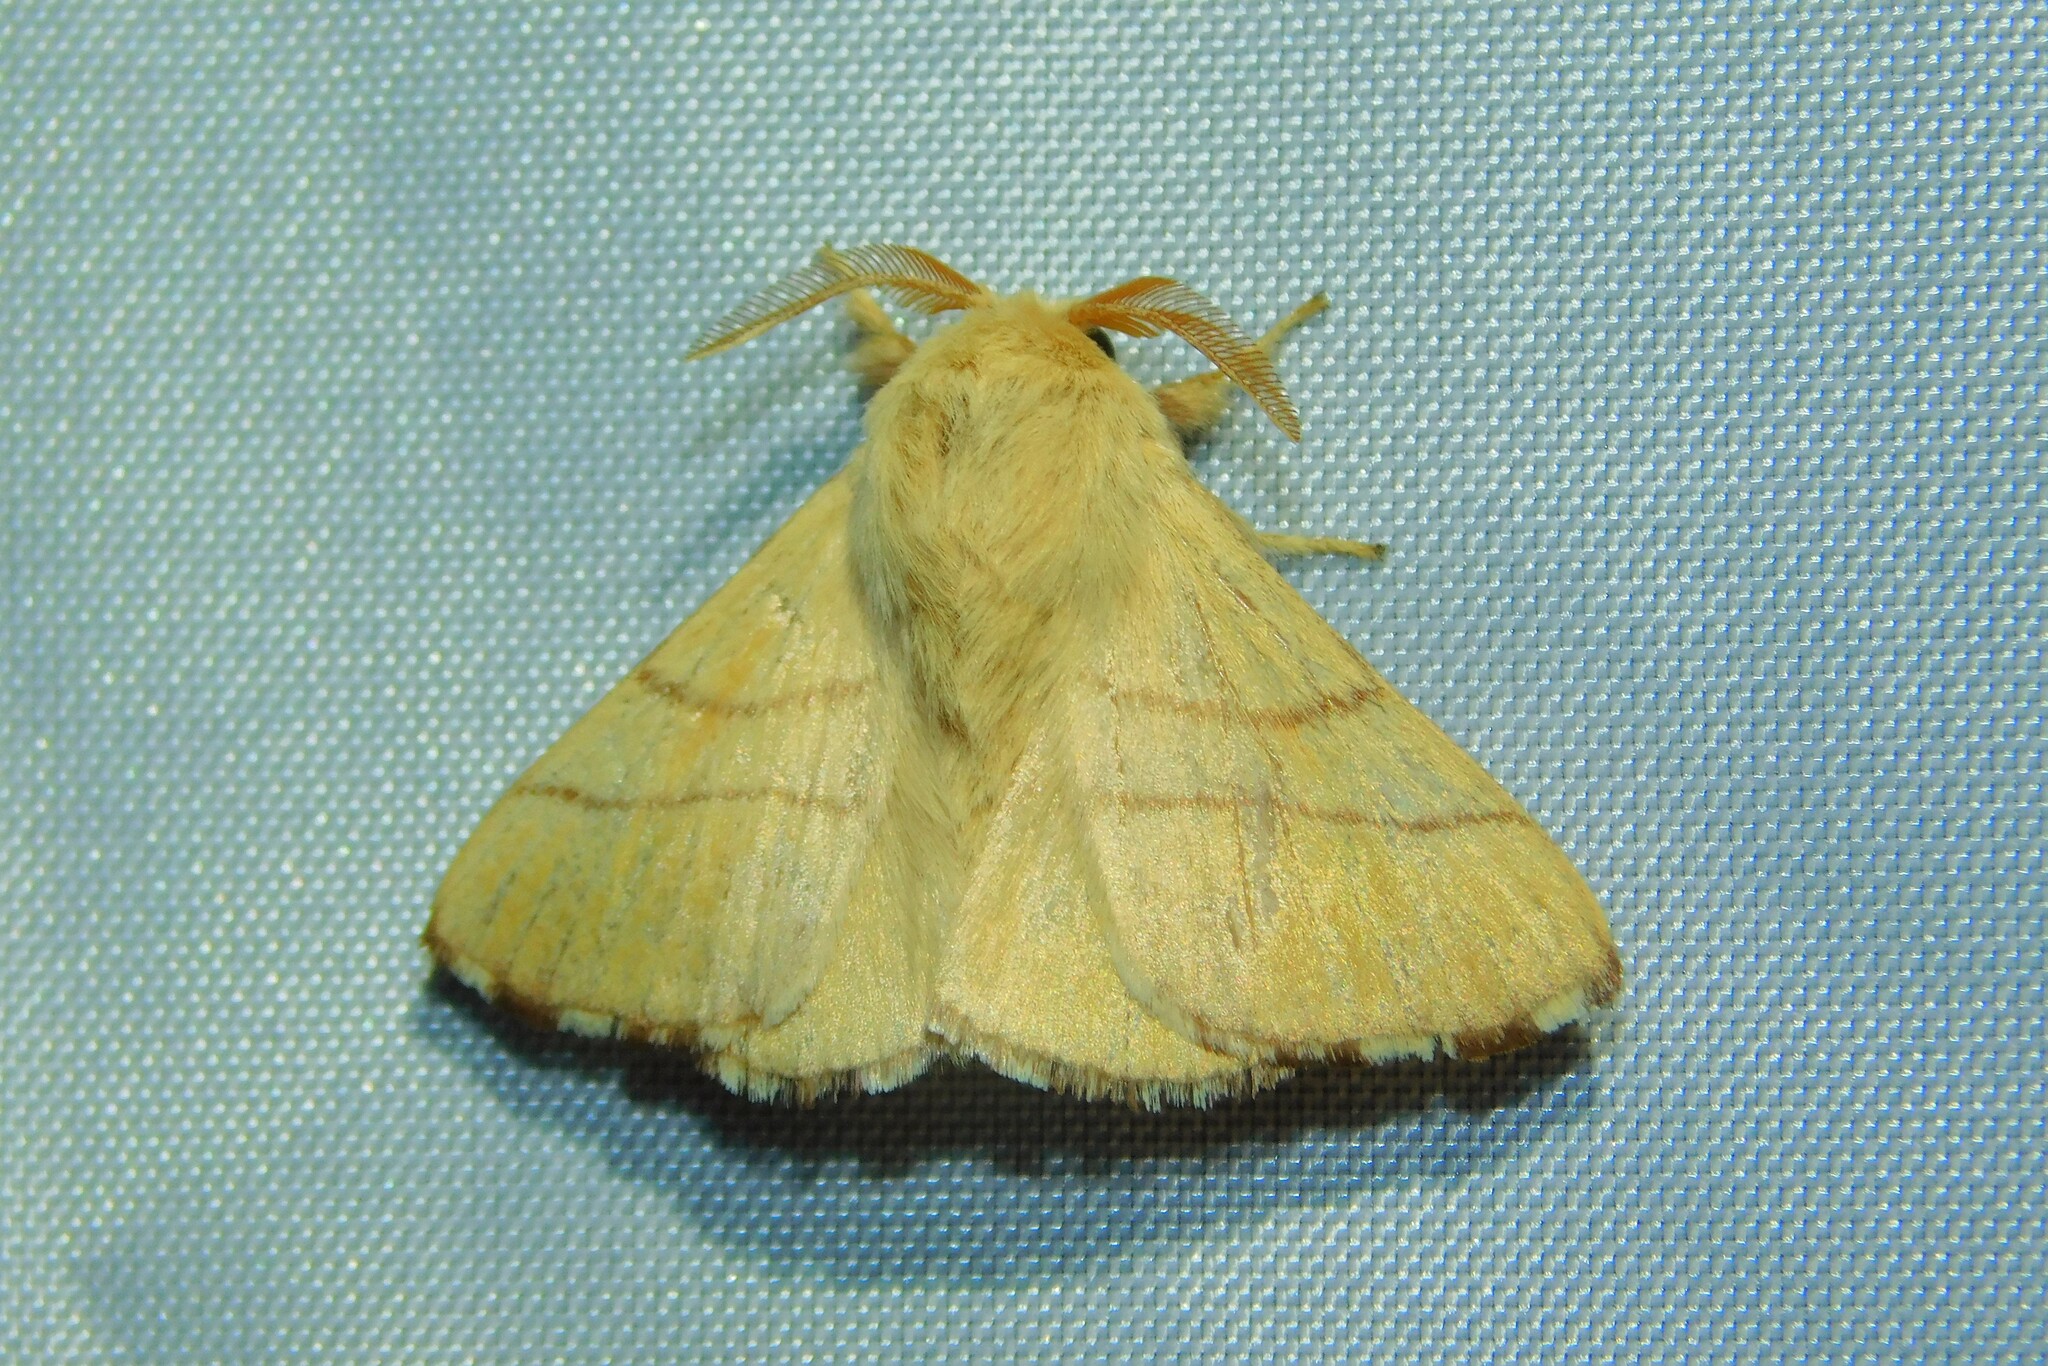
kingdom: Animalia
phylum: Arthropoda
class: Insecta
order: Lepidoptera
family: Lasiocampidae
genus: Malacosoma
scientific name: Malacosoma neustria
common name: The lackey
